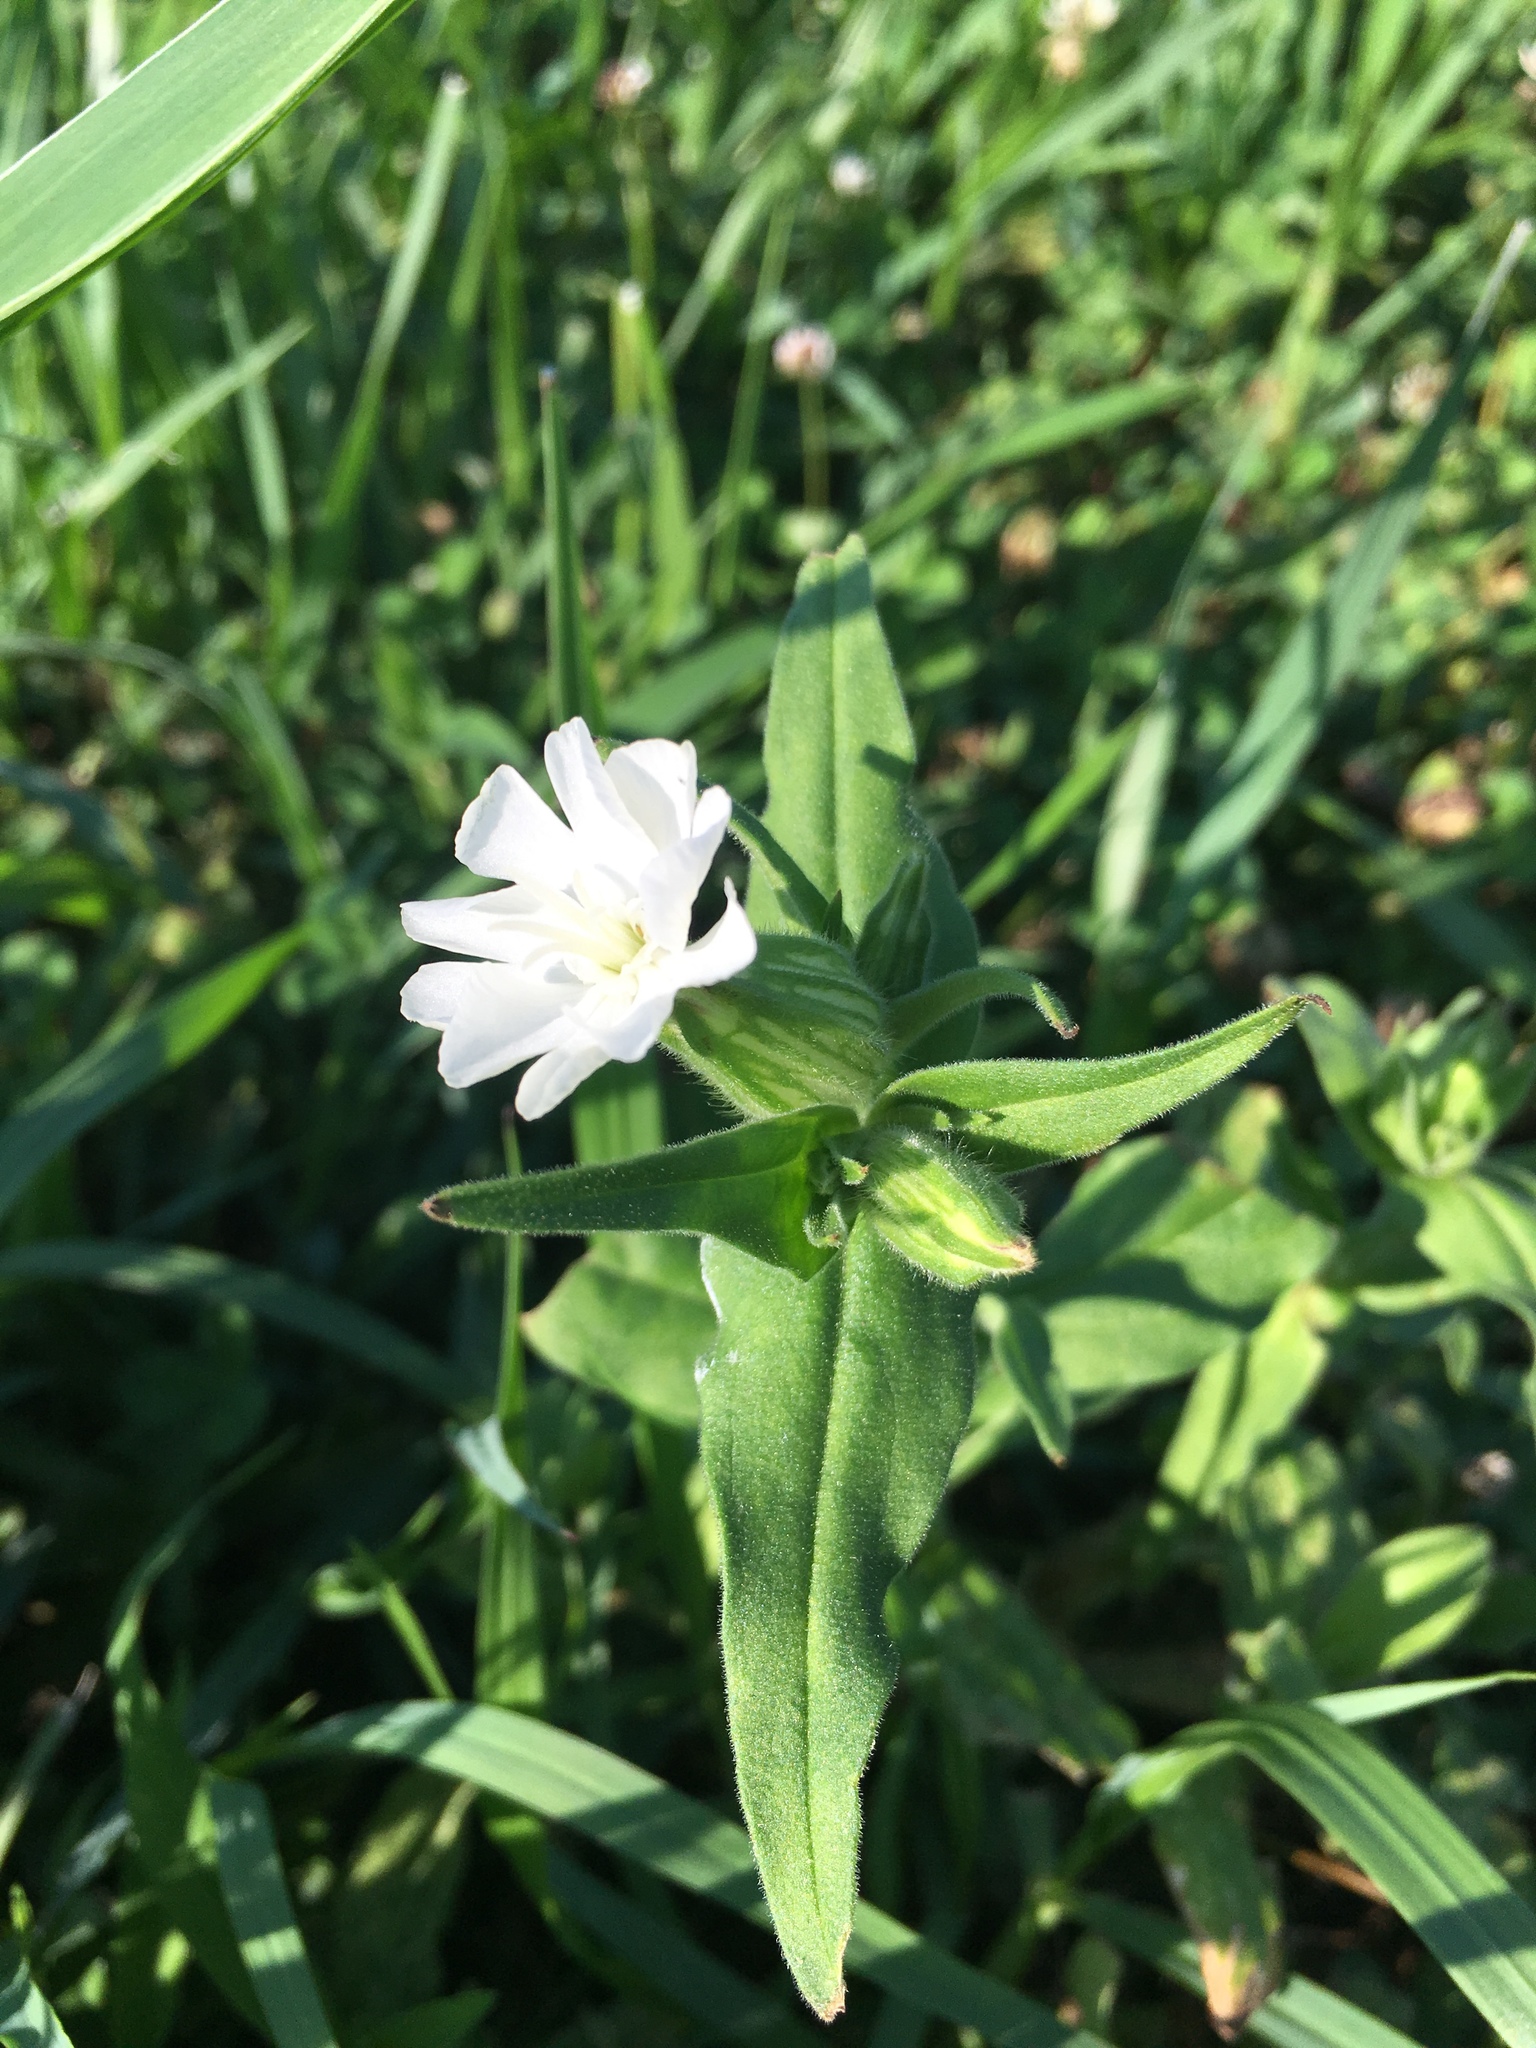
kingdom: Plantae
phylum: Tracheophyta
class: Magnoliopsida
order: Caryophyllales
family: Caryophyllaceae
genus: Silene
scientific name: Silene latifolia
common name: White campion
